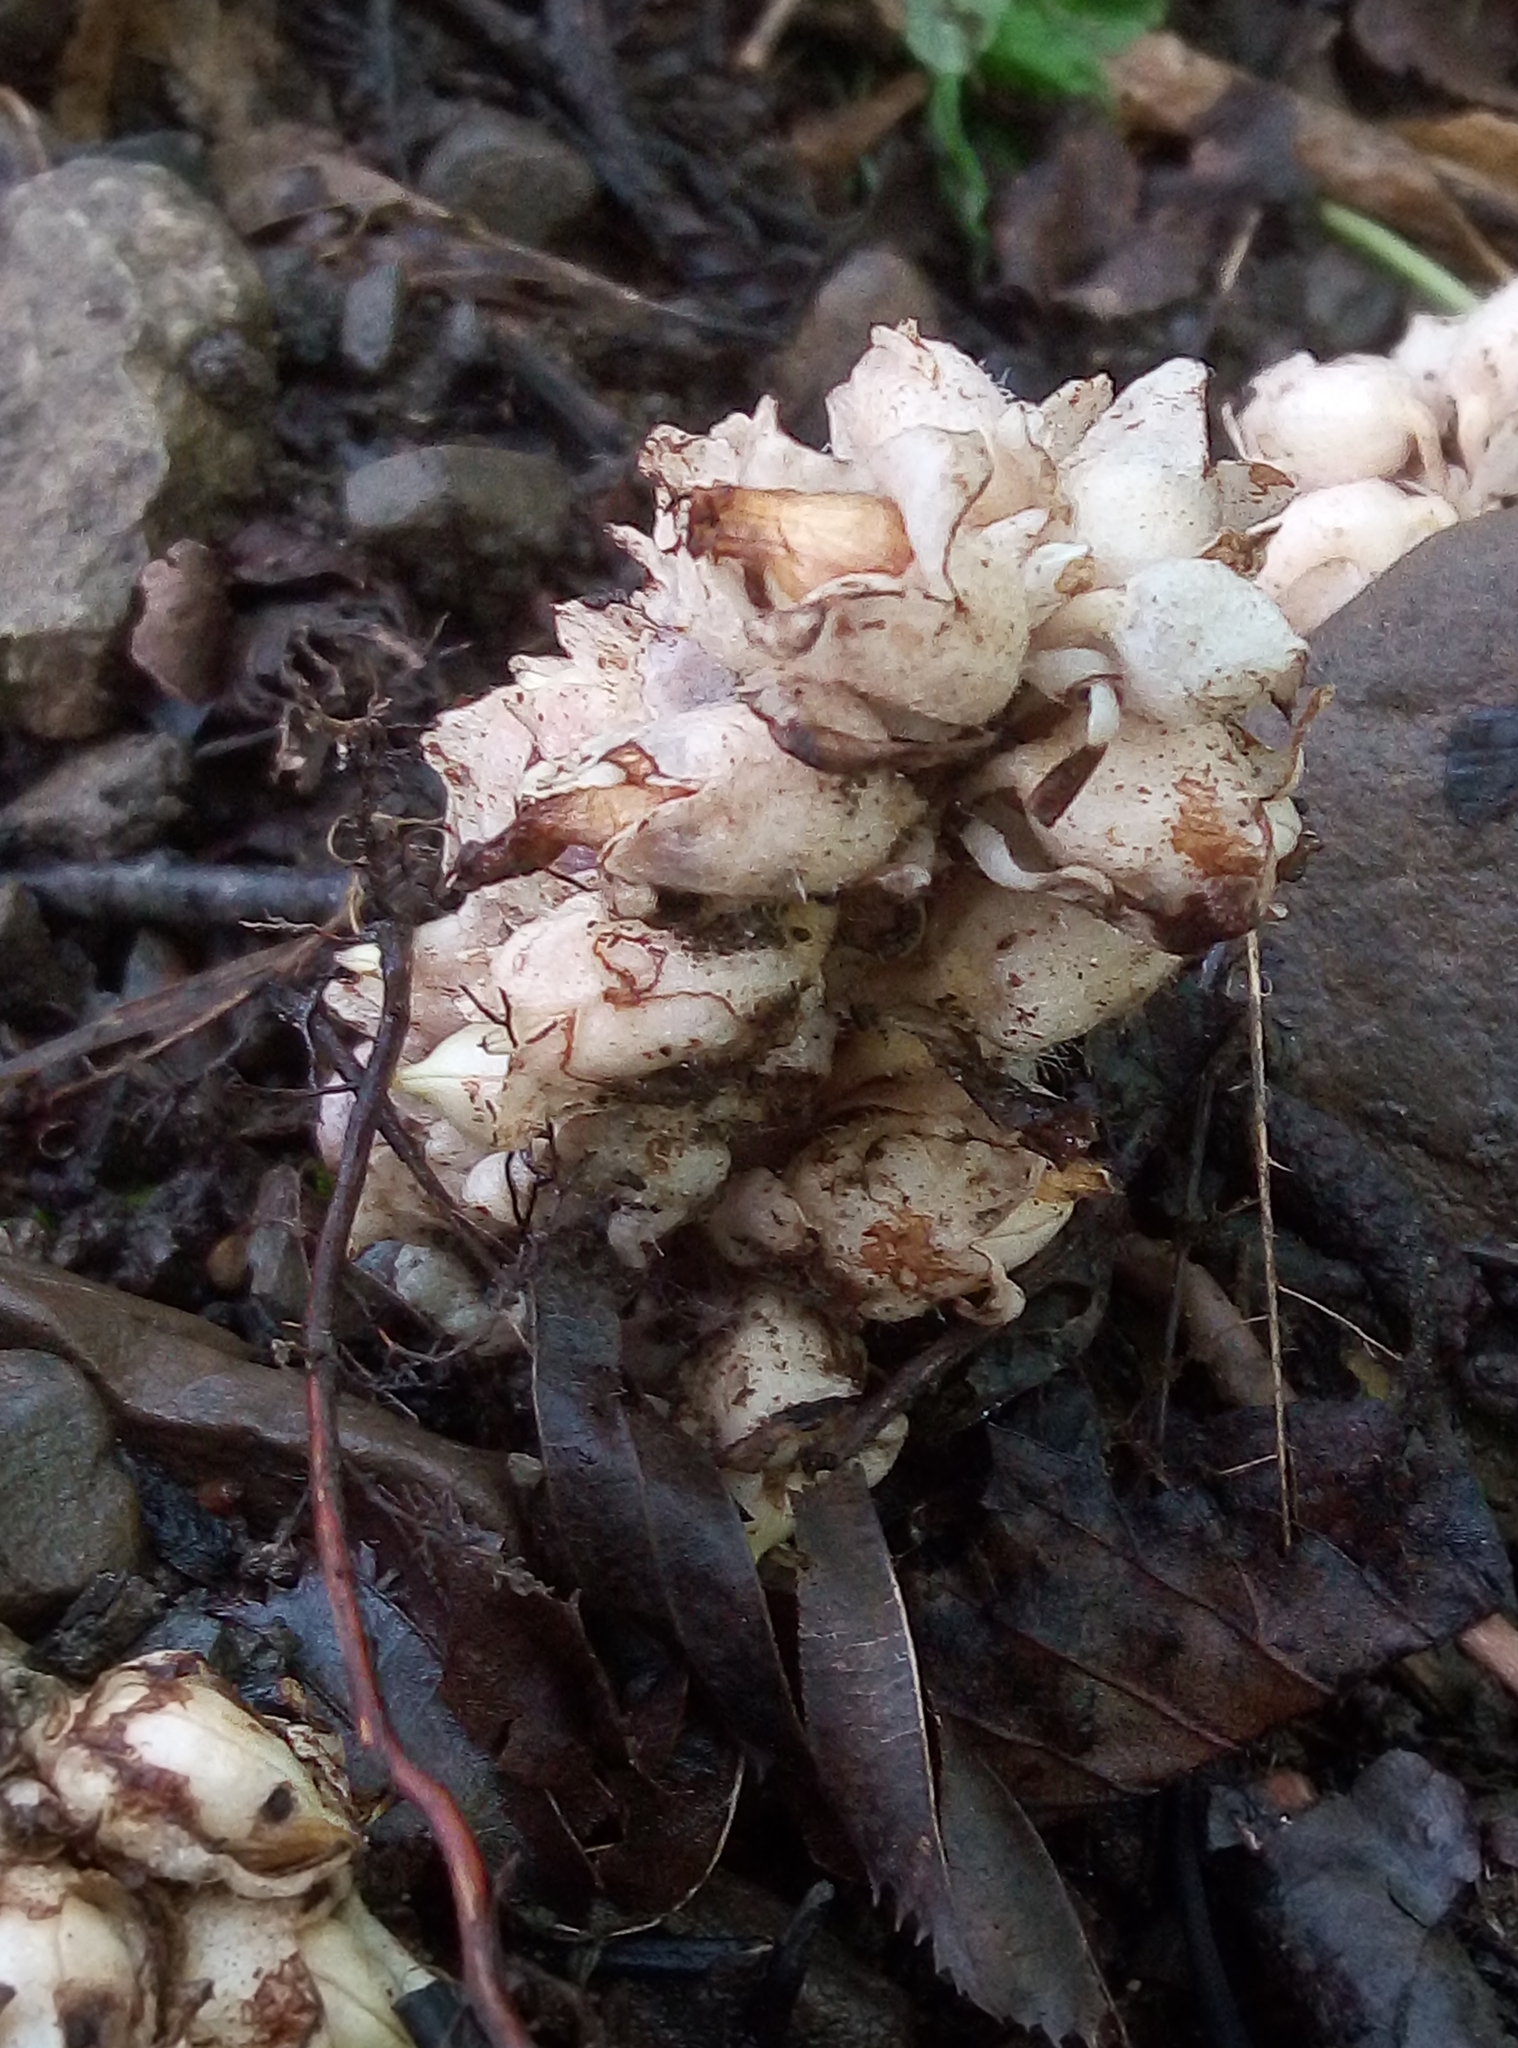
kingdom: Plantae
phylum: Tracheophyta
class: Magnoliopsida
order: Lamiales
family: Orobanchaceae
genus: Lathraea
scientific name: Lathraea squamaria
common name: Toothwort
